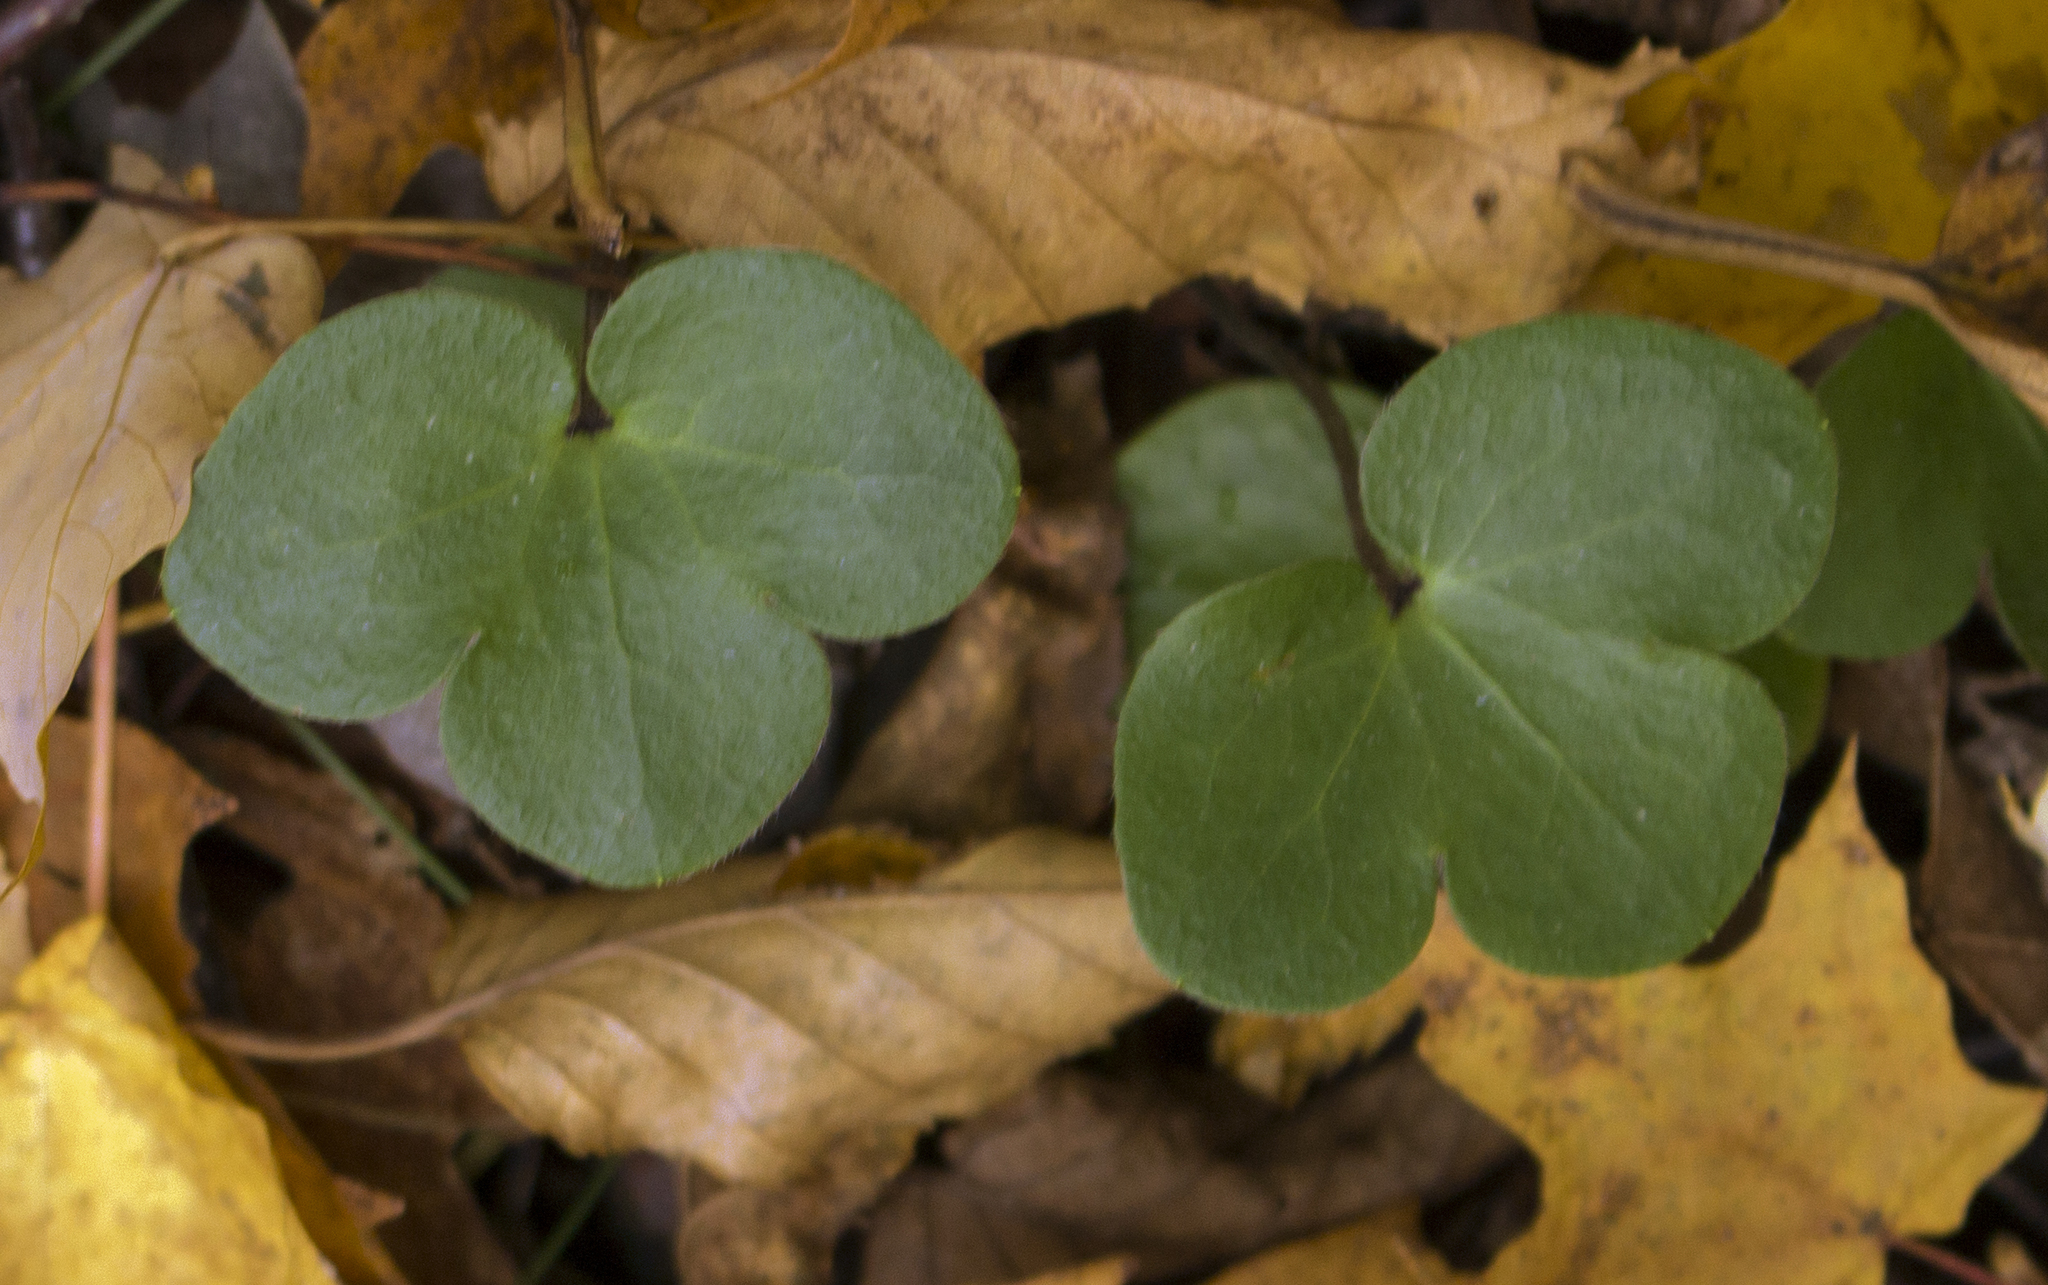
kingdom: Plantae
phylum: Tracheophyta
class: Magnoliopsida
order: Ranunculales
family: Ranunculaceae
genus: Hepatica
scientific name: Hepatica americana
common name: American hepatica
